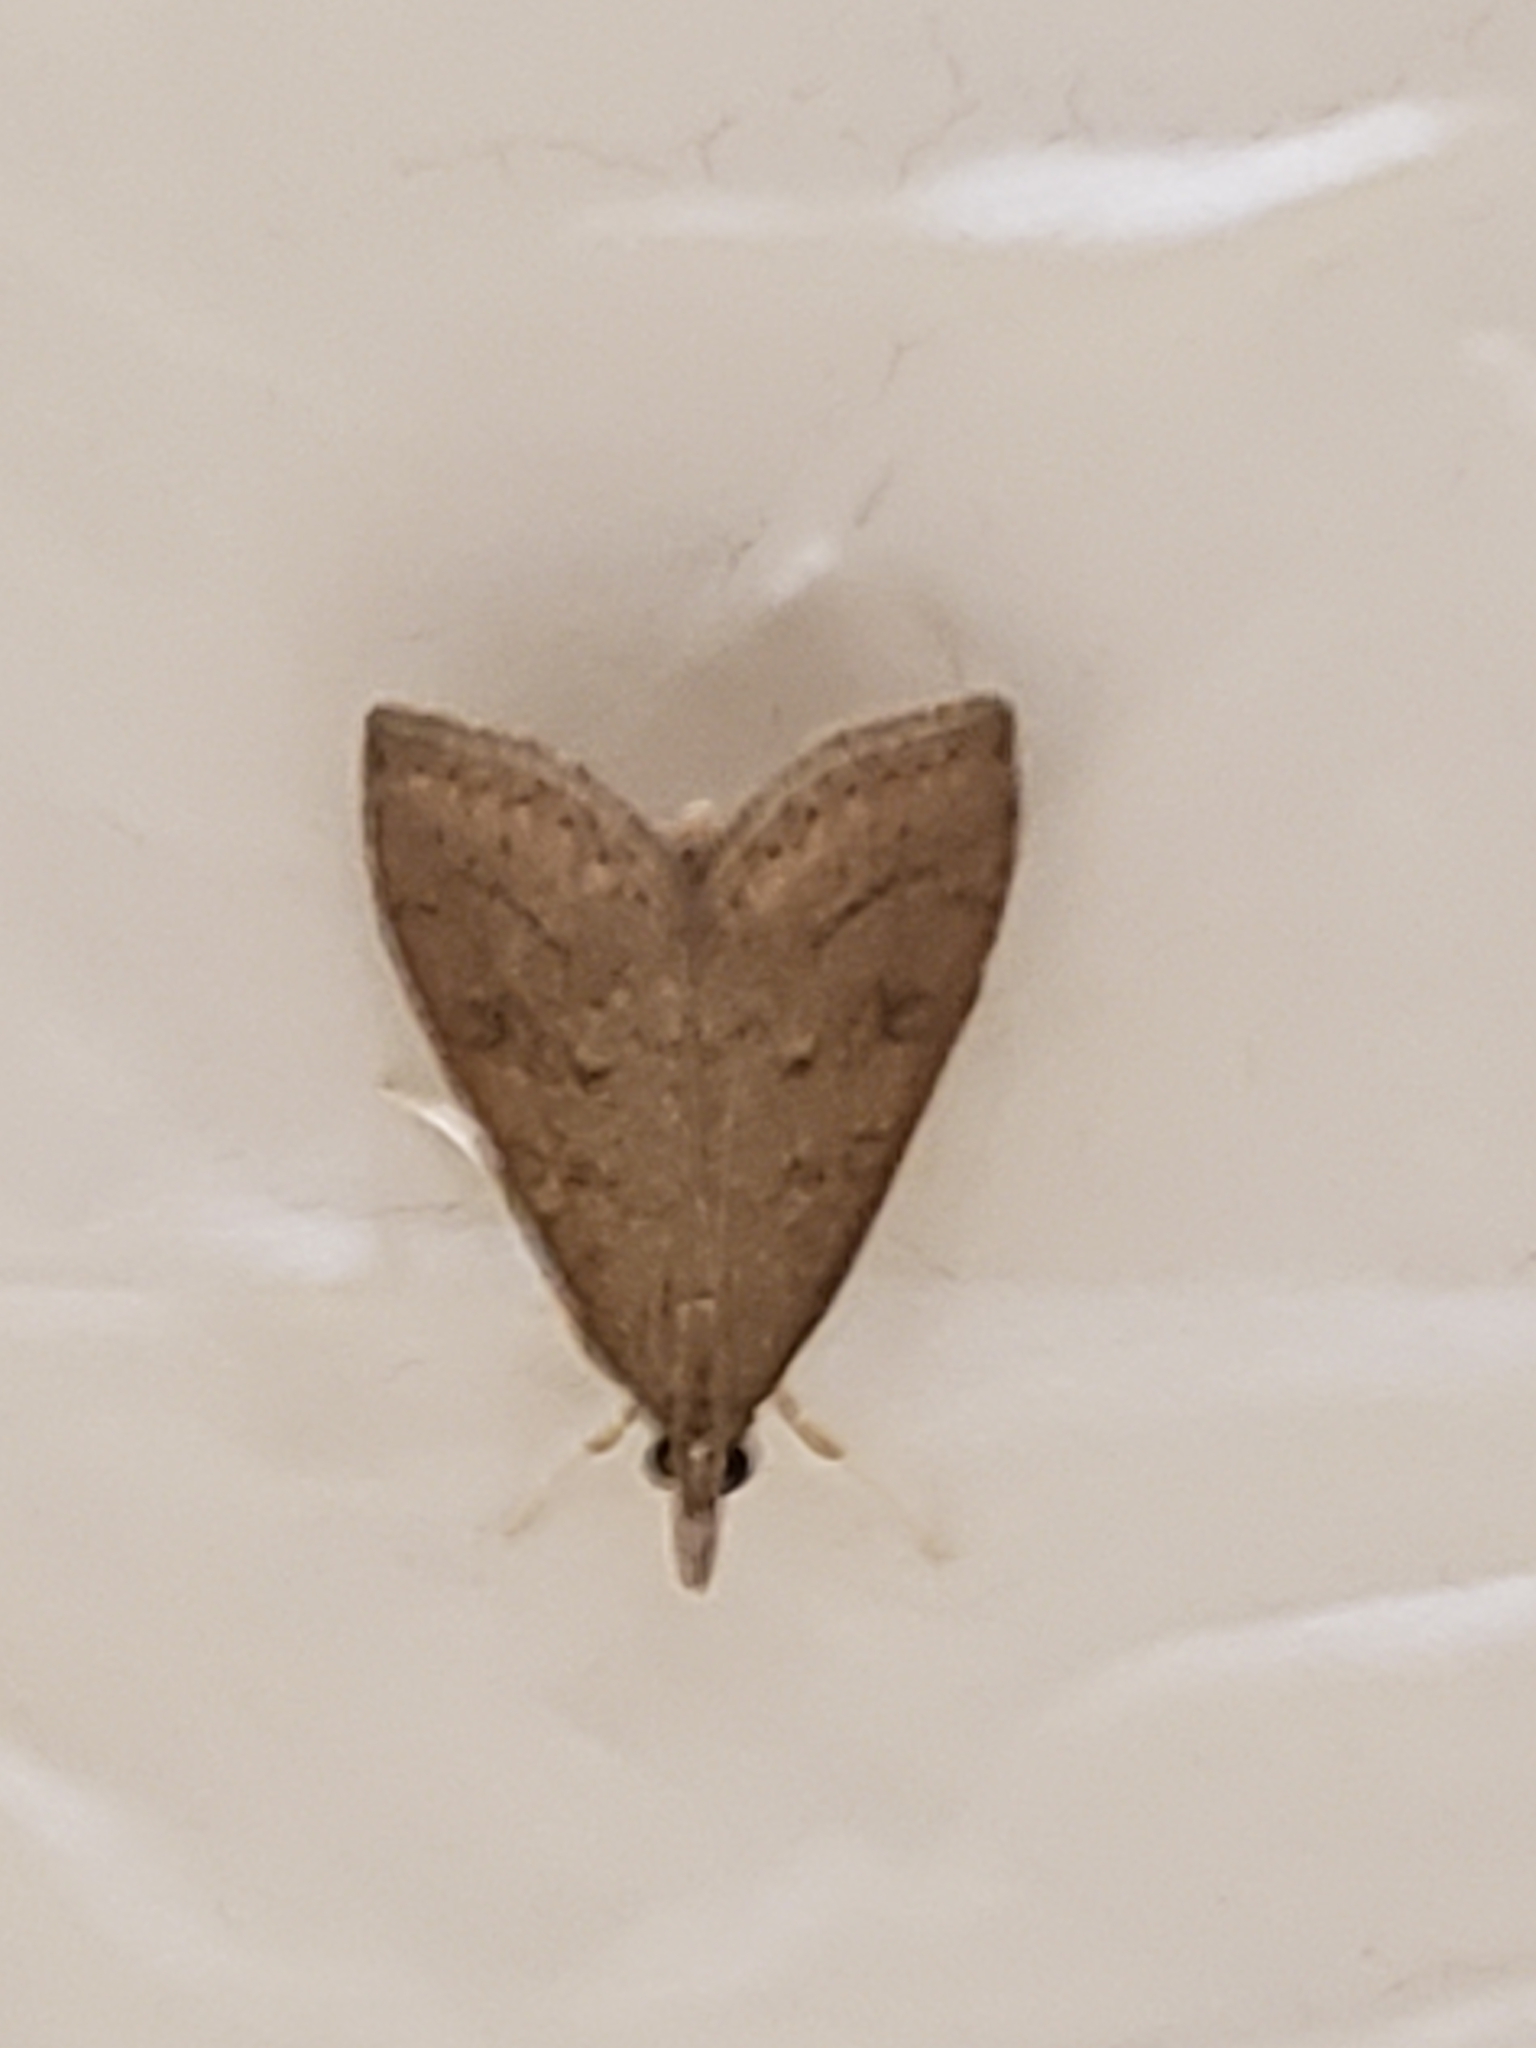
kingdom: Animalia
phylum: Arthropoda
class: Insecta
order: Lepidoptera
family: Crambidae
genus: Udea
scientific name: Udea rubigalis
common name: Celery leaftier moth
